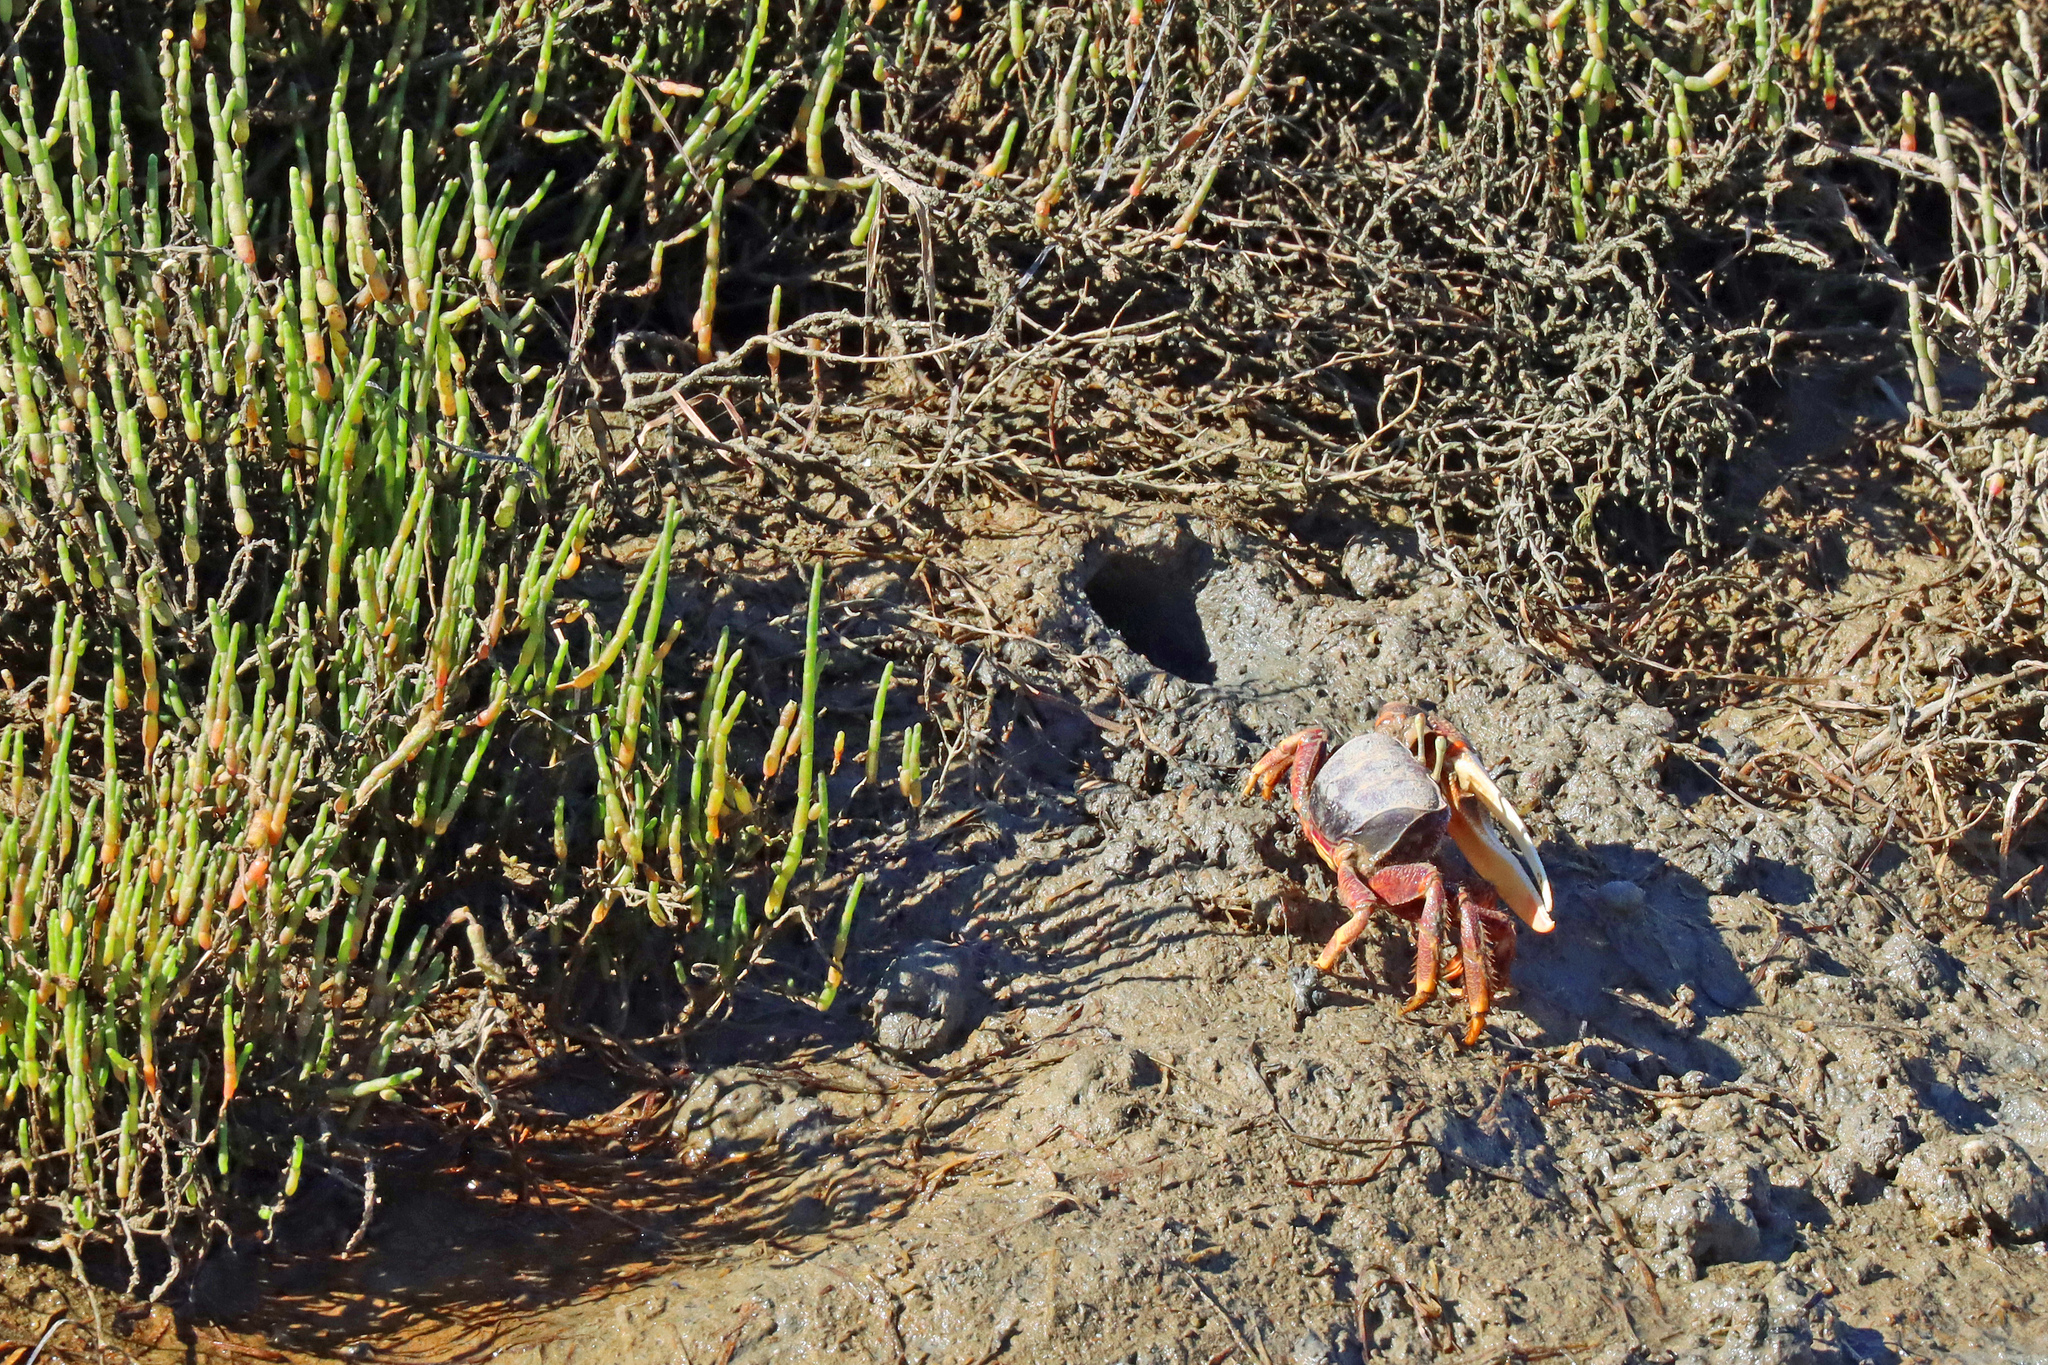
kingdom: Animalia
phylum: Arthropoda
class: Malacostraca
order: Decapoda
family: Ocypodidae
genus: Afruca
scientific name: Afruca tangeri
